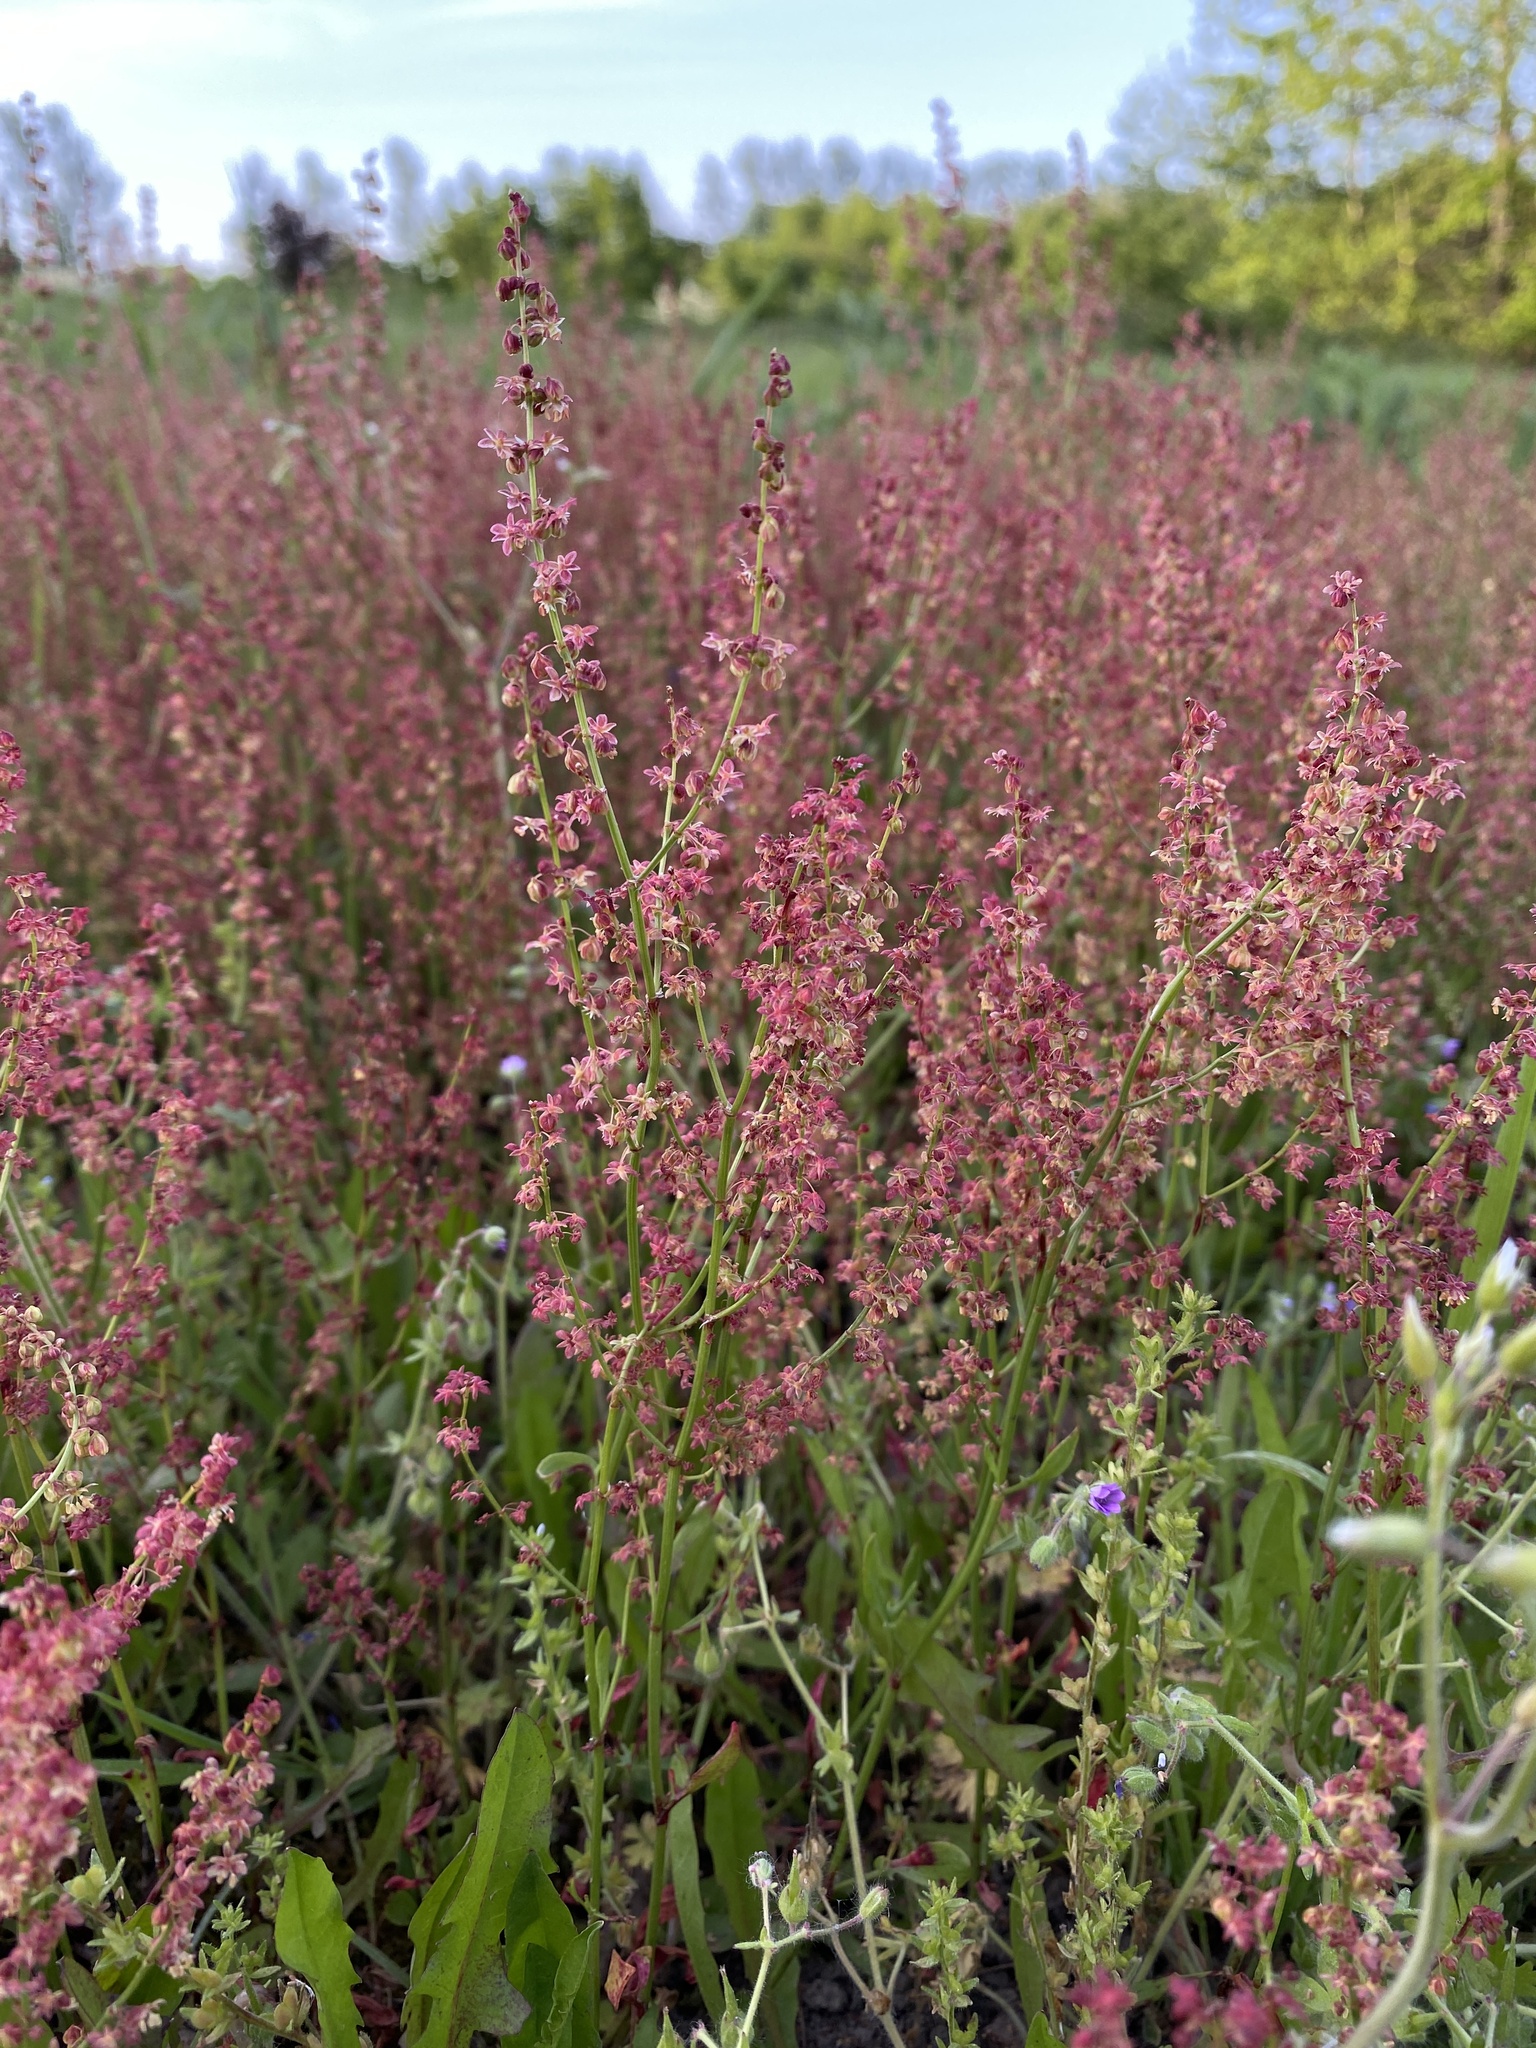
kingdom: Plantae
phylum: Tracheophyta
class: Magnoliopsida
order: Caryophyllales
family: Polygonaceae
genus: Rumex
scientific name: Rumex acetosella
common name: Common sheep sorrel
